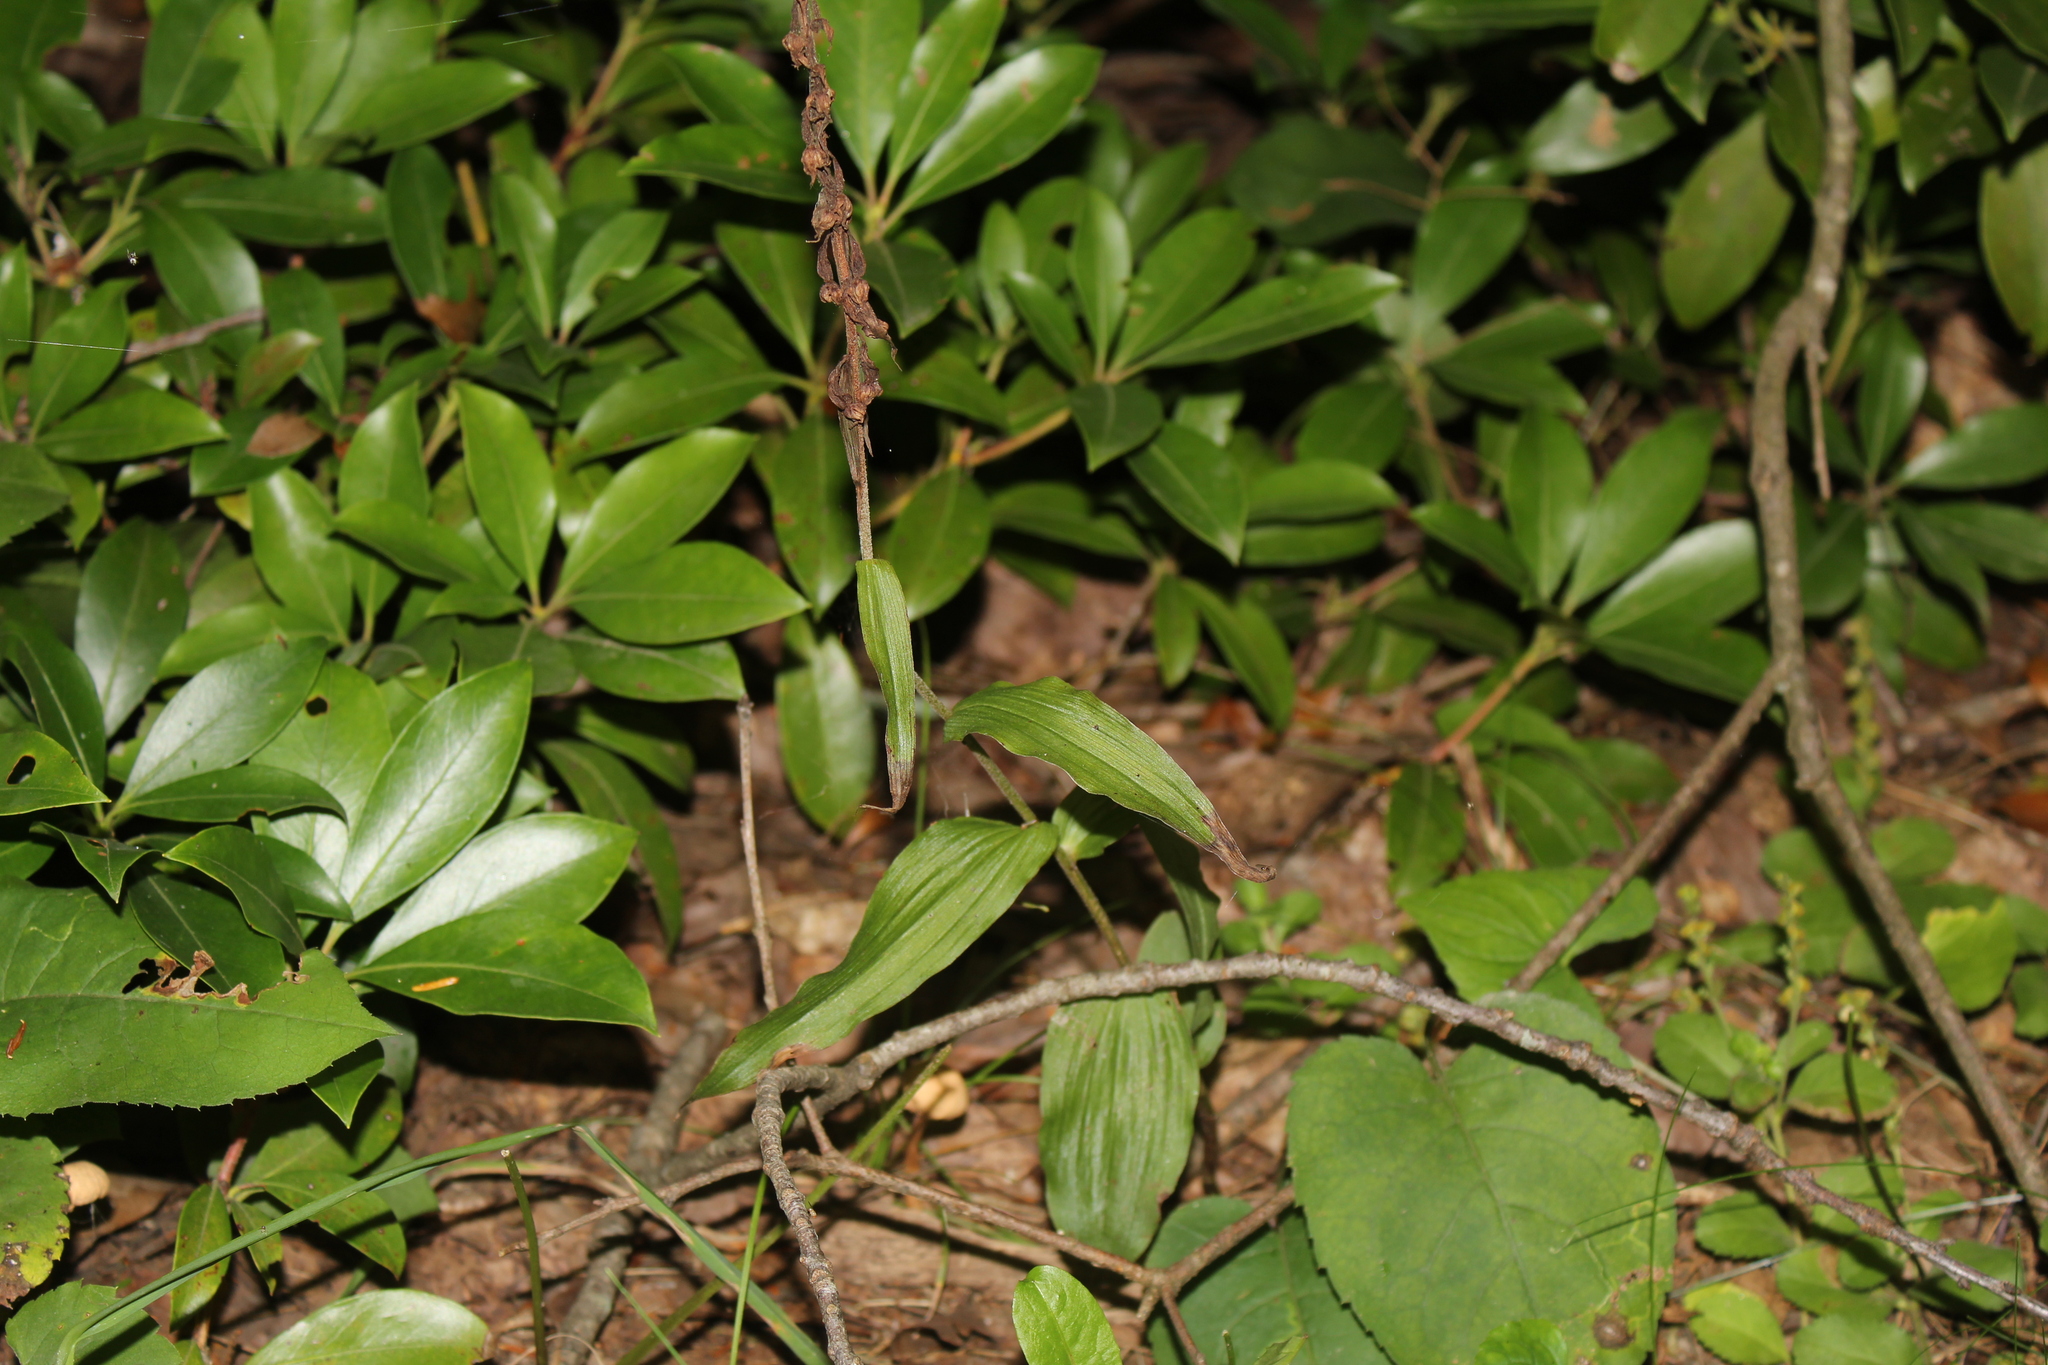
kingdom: Plantae
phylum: Tracheophyta
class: Liliopsida
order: Asparagales
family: Orchidaceae
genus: Epipactis
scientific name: Epipactis helleborine
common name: Broad-leaved helleborine
